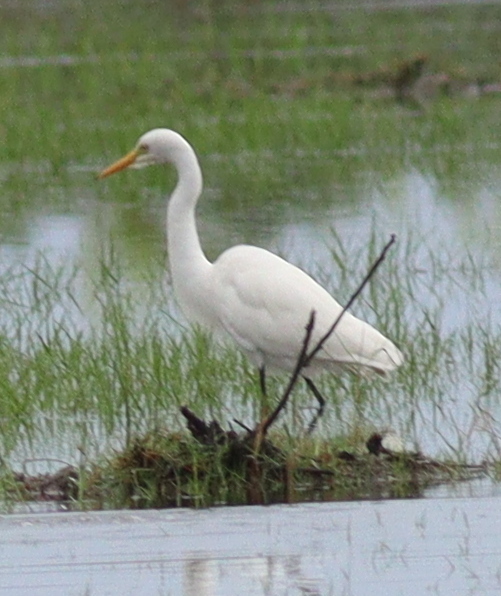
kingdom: Animalia
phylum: Chordata
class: Aves
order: Pelecaniformes
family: Ardeidae
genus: Egretta
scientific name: Egretta intermedia
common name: Intermediate egret
